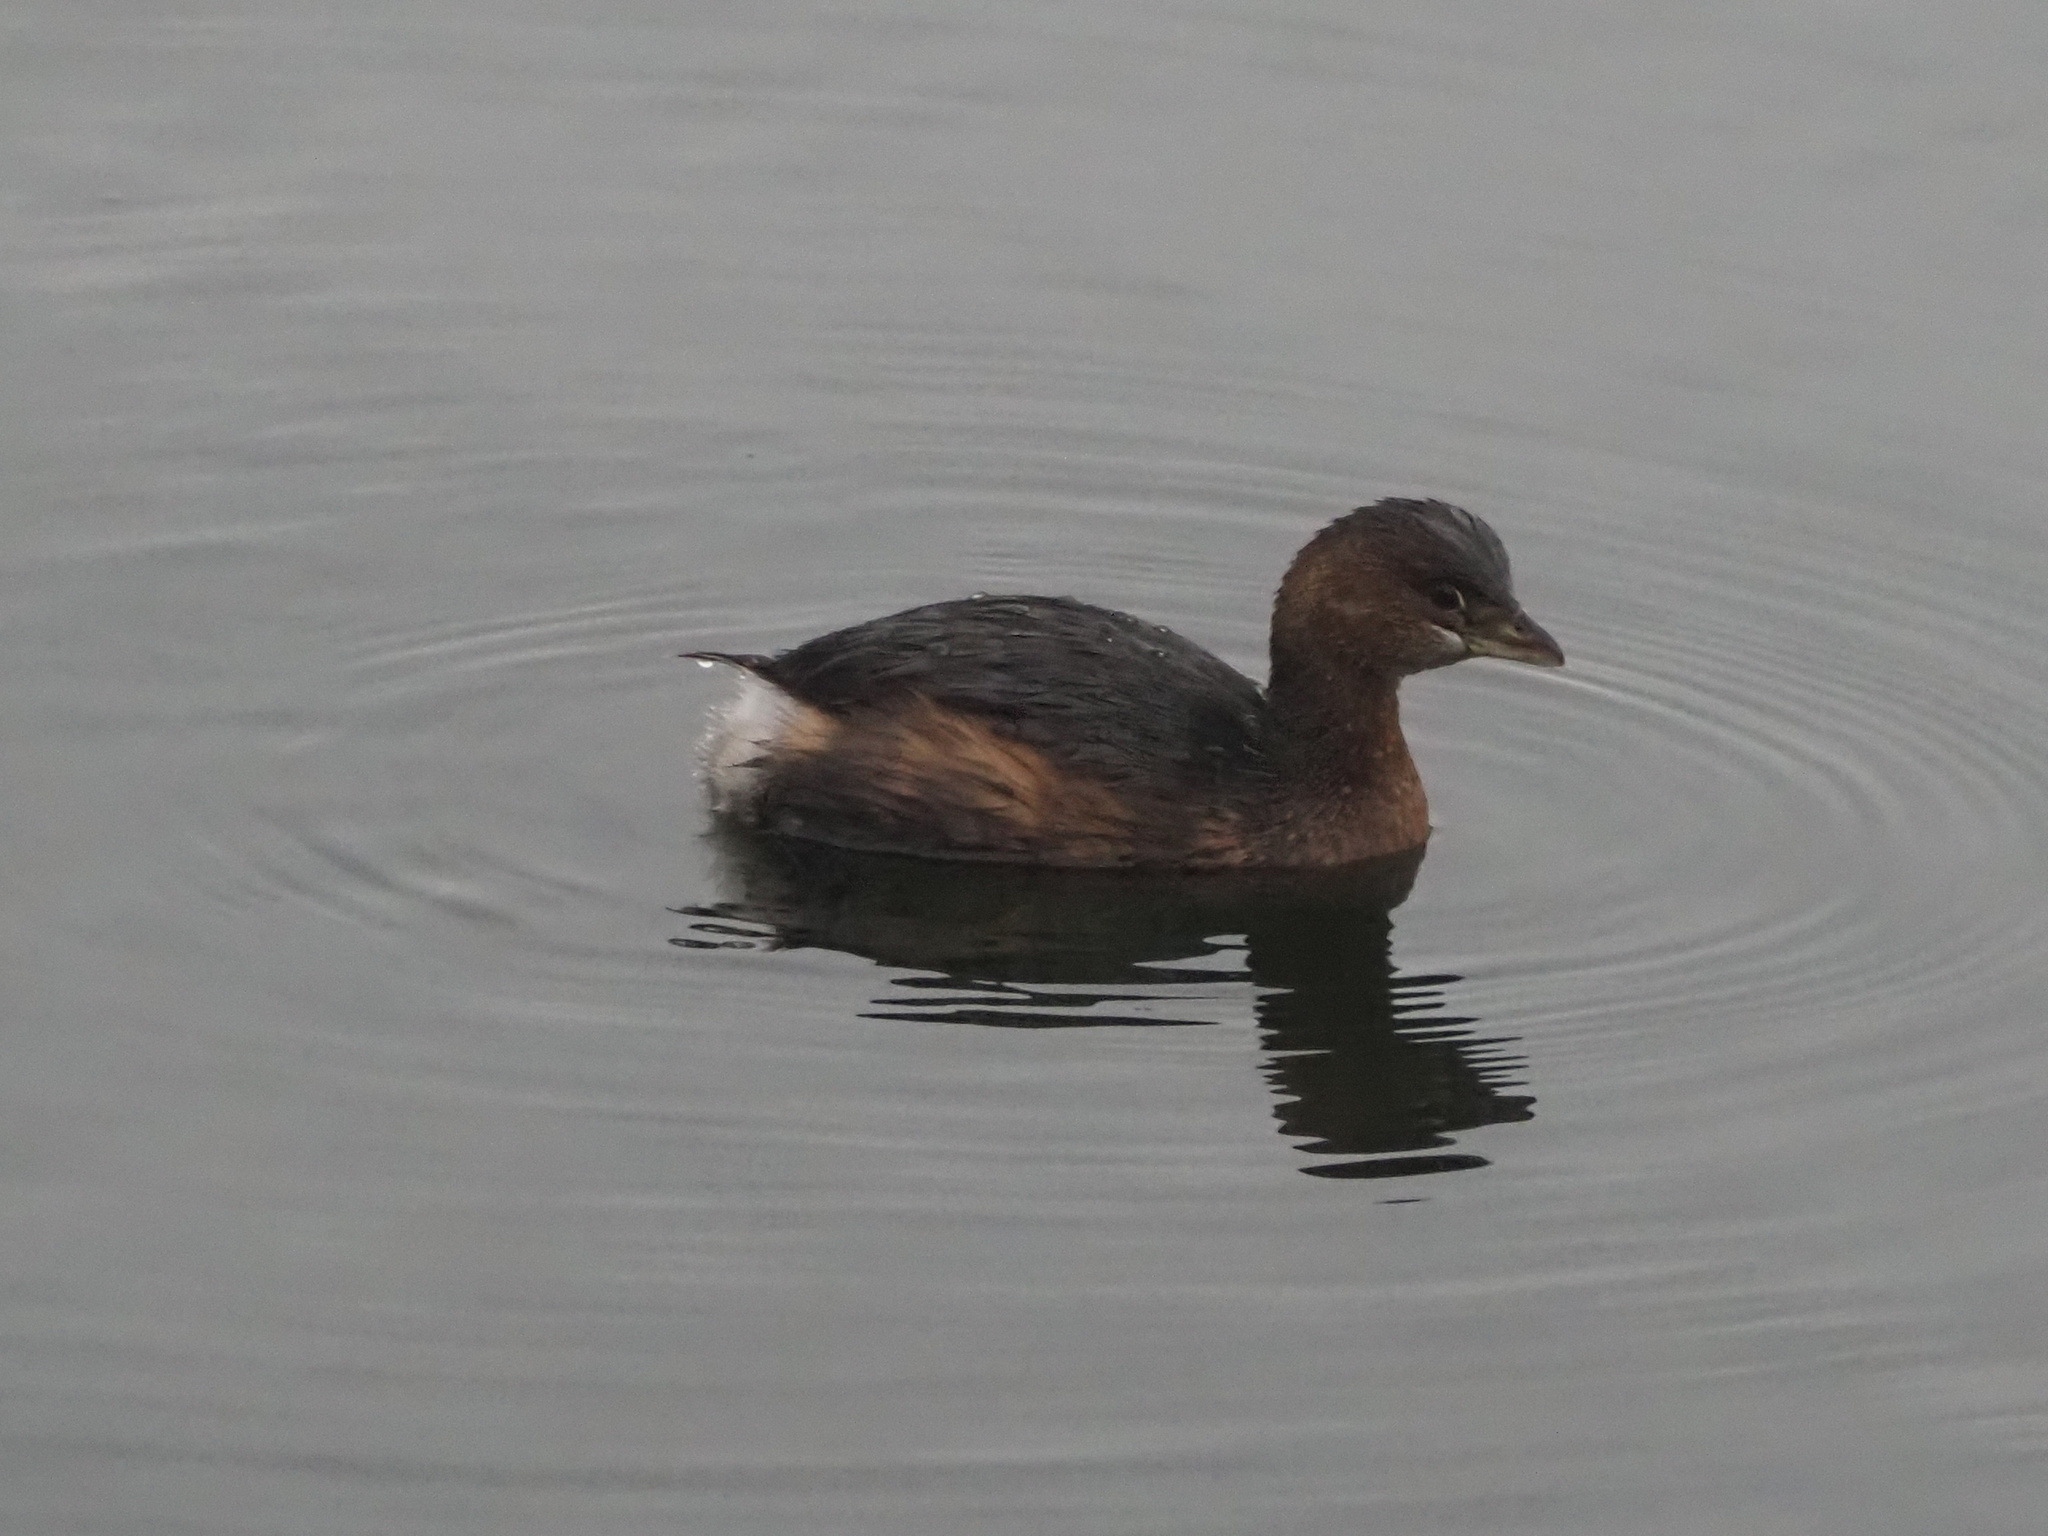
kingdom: Animalia
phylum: Chordata
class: Aves
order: Podicipediformes
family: Podicipedidae
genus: Podilymbus
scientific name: Podilymbus podiceps
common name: Pied-billed grebe
